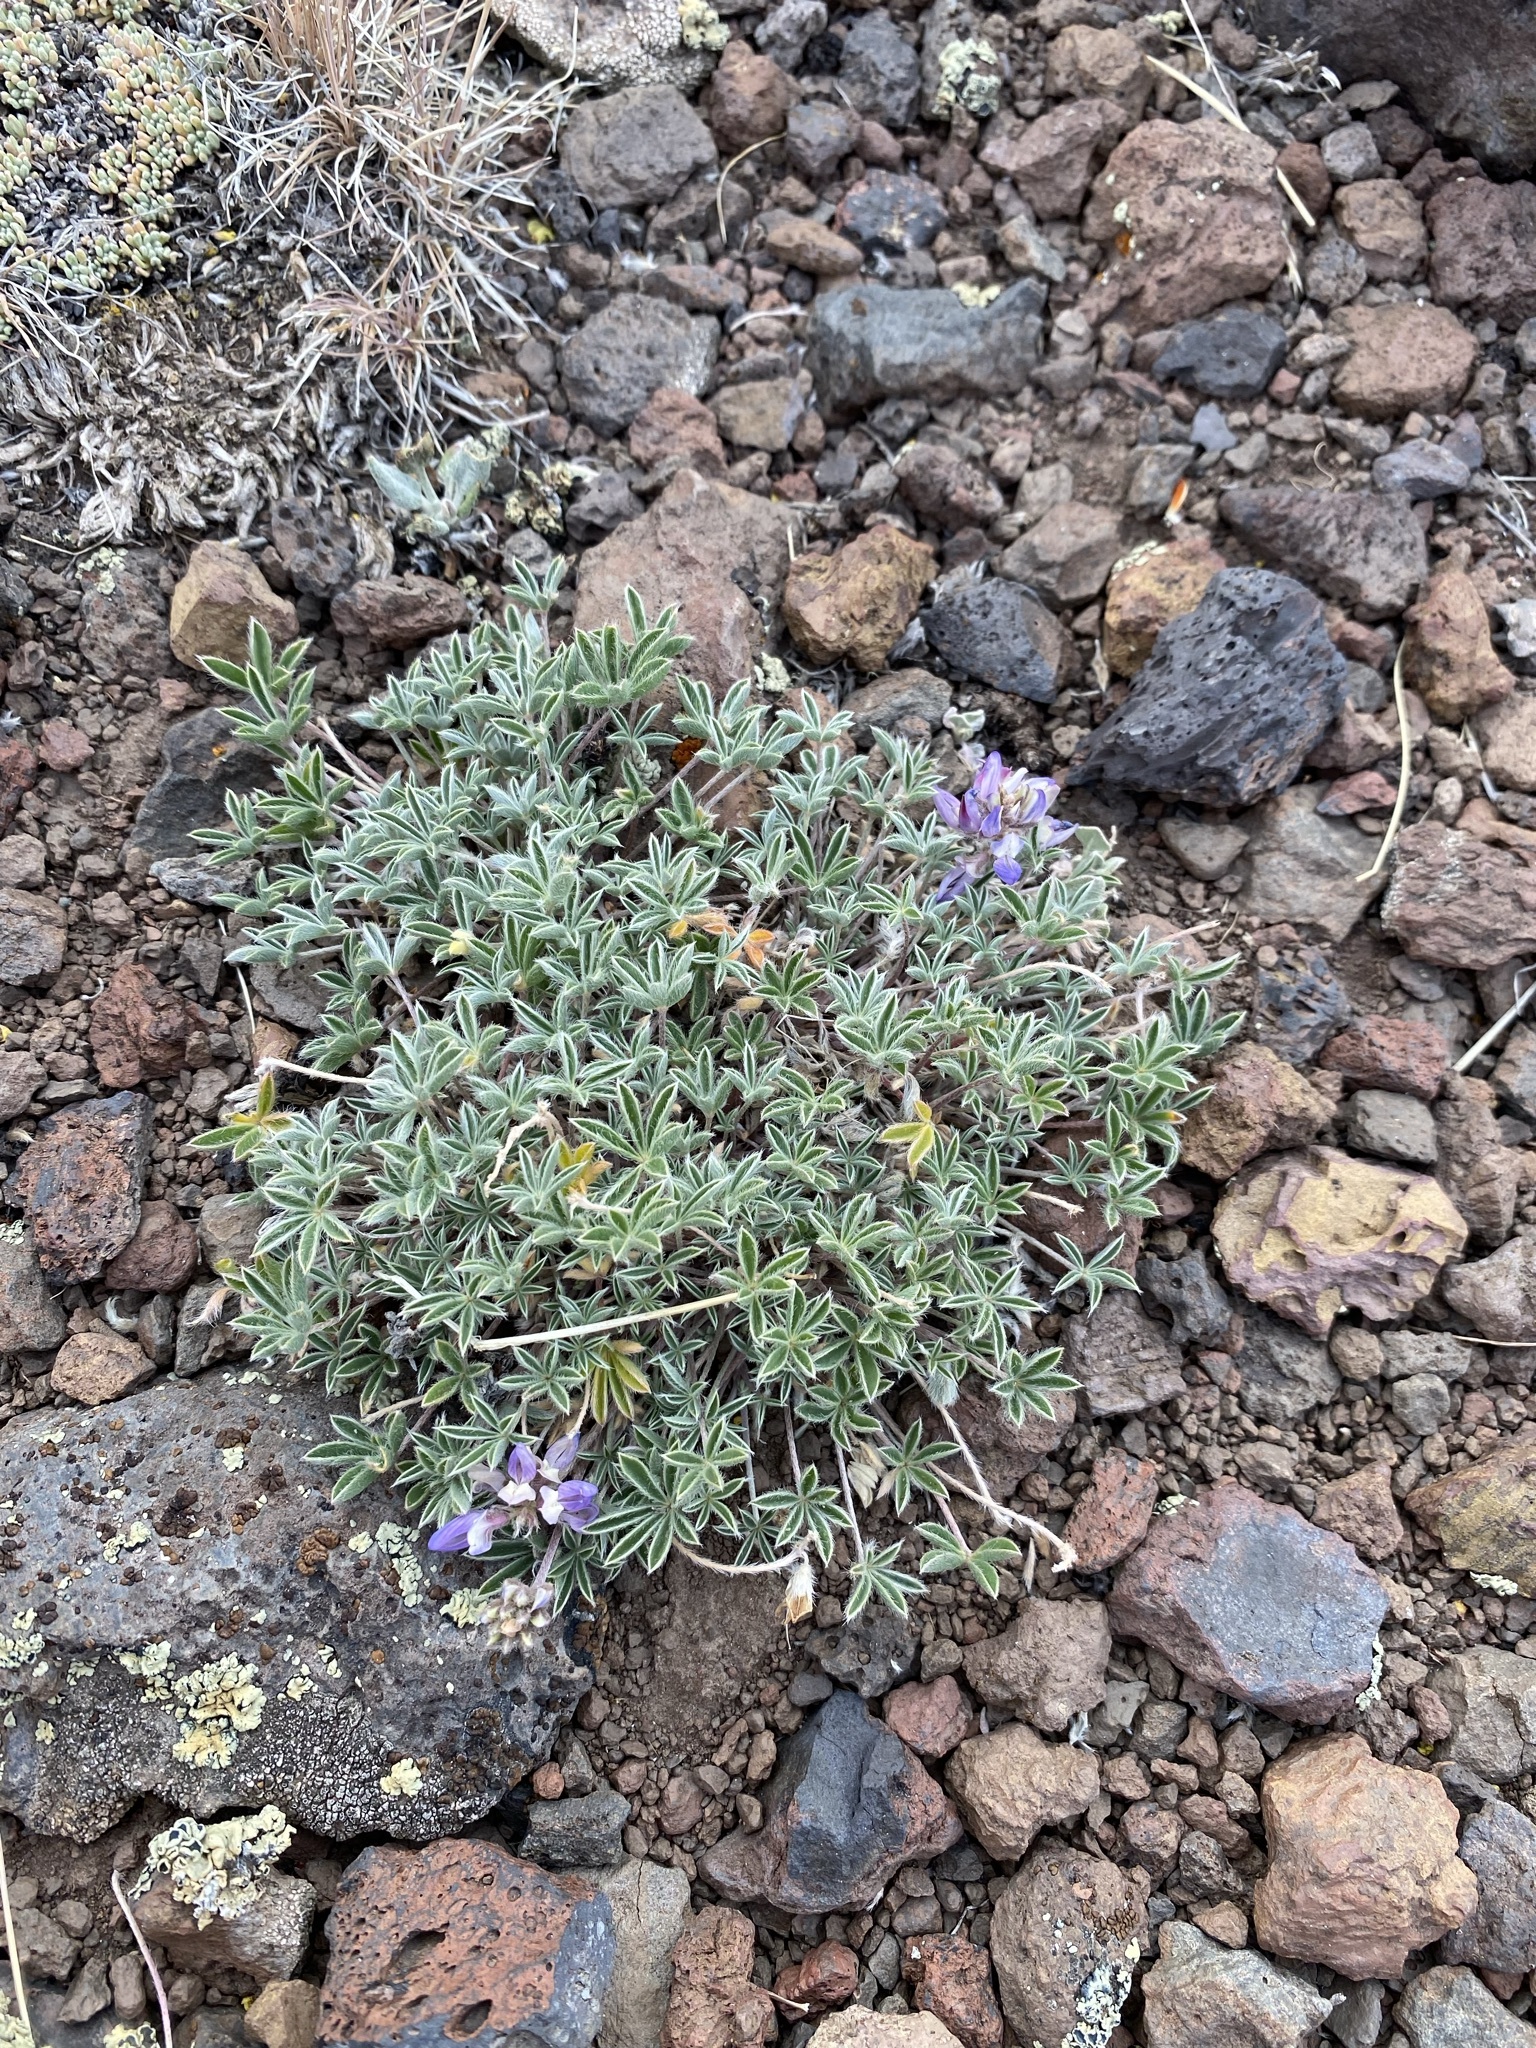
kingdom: Plantae
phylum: Tracheophyta
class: Magnoliopsida
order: Fabales
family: Fabaceae
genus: Lupinus
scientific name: Lupinus lepidus
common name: Prairie lupine
